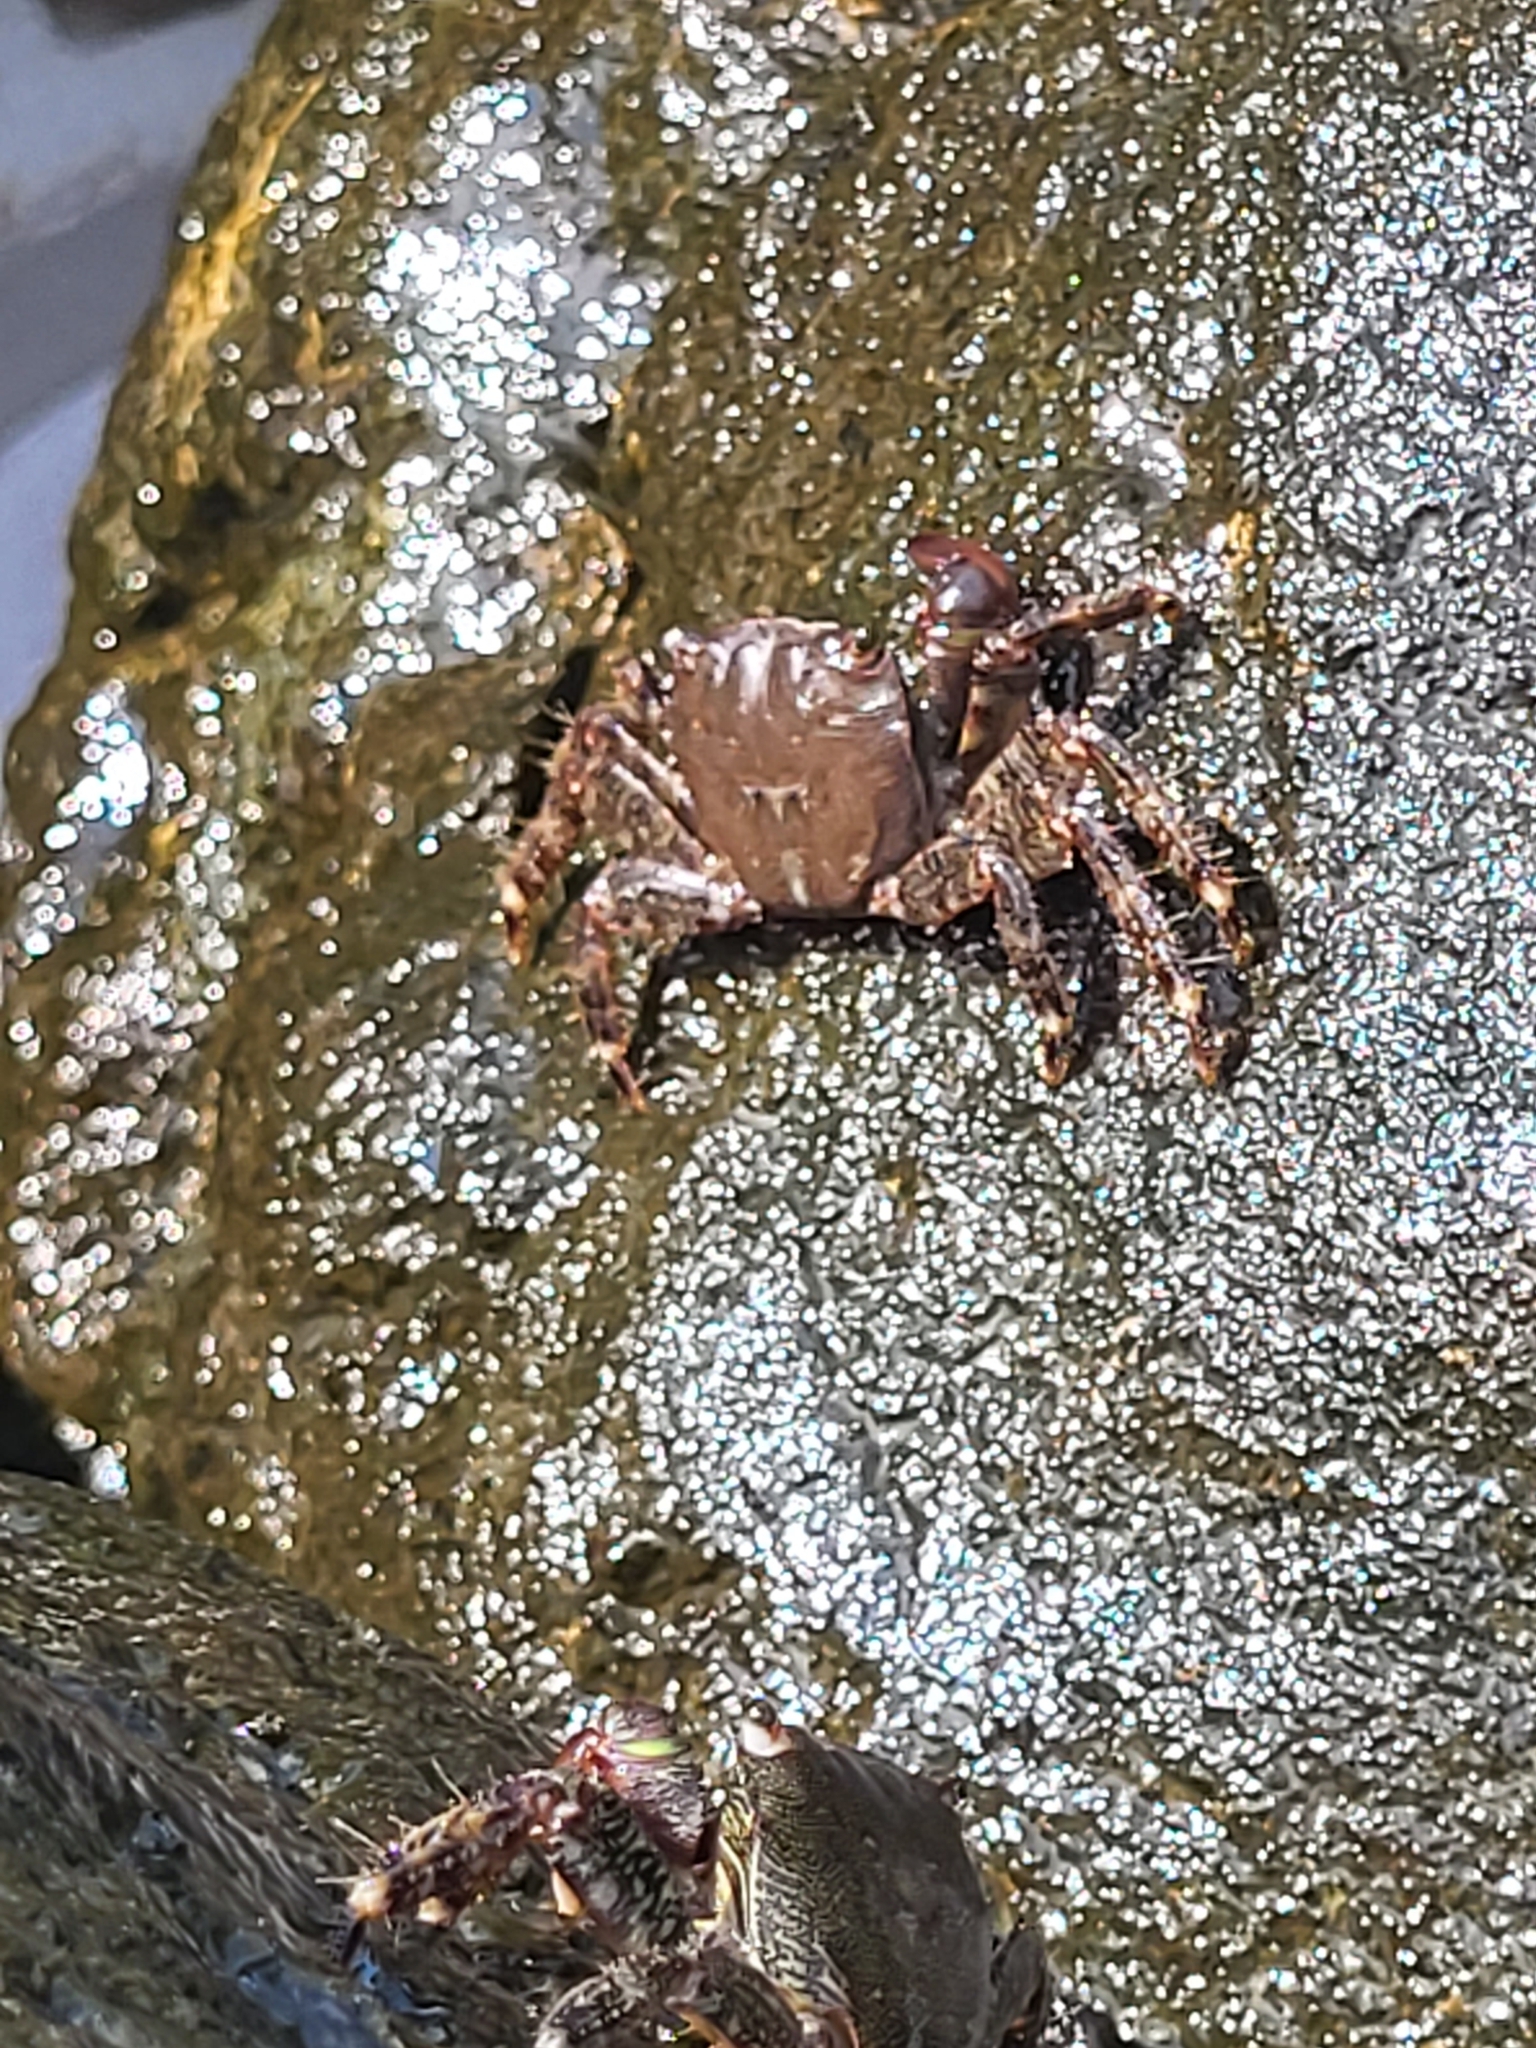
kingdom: Animalia
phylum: Arthropoda
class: Malacostraca
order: Decapoda
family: Grapsidae
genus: Pachygrapsus
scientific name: Pachygrapsus marmoratus
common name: Marbled rock crab
